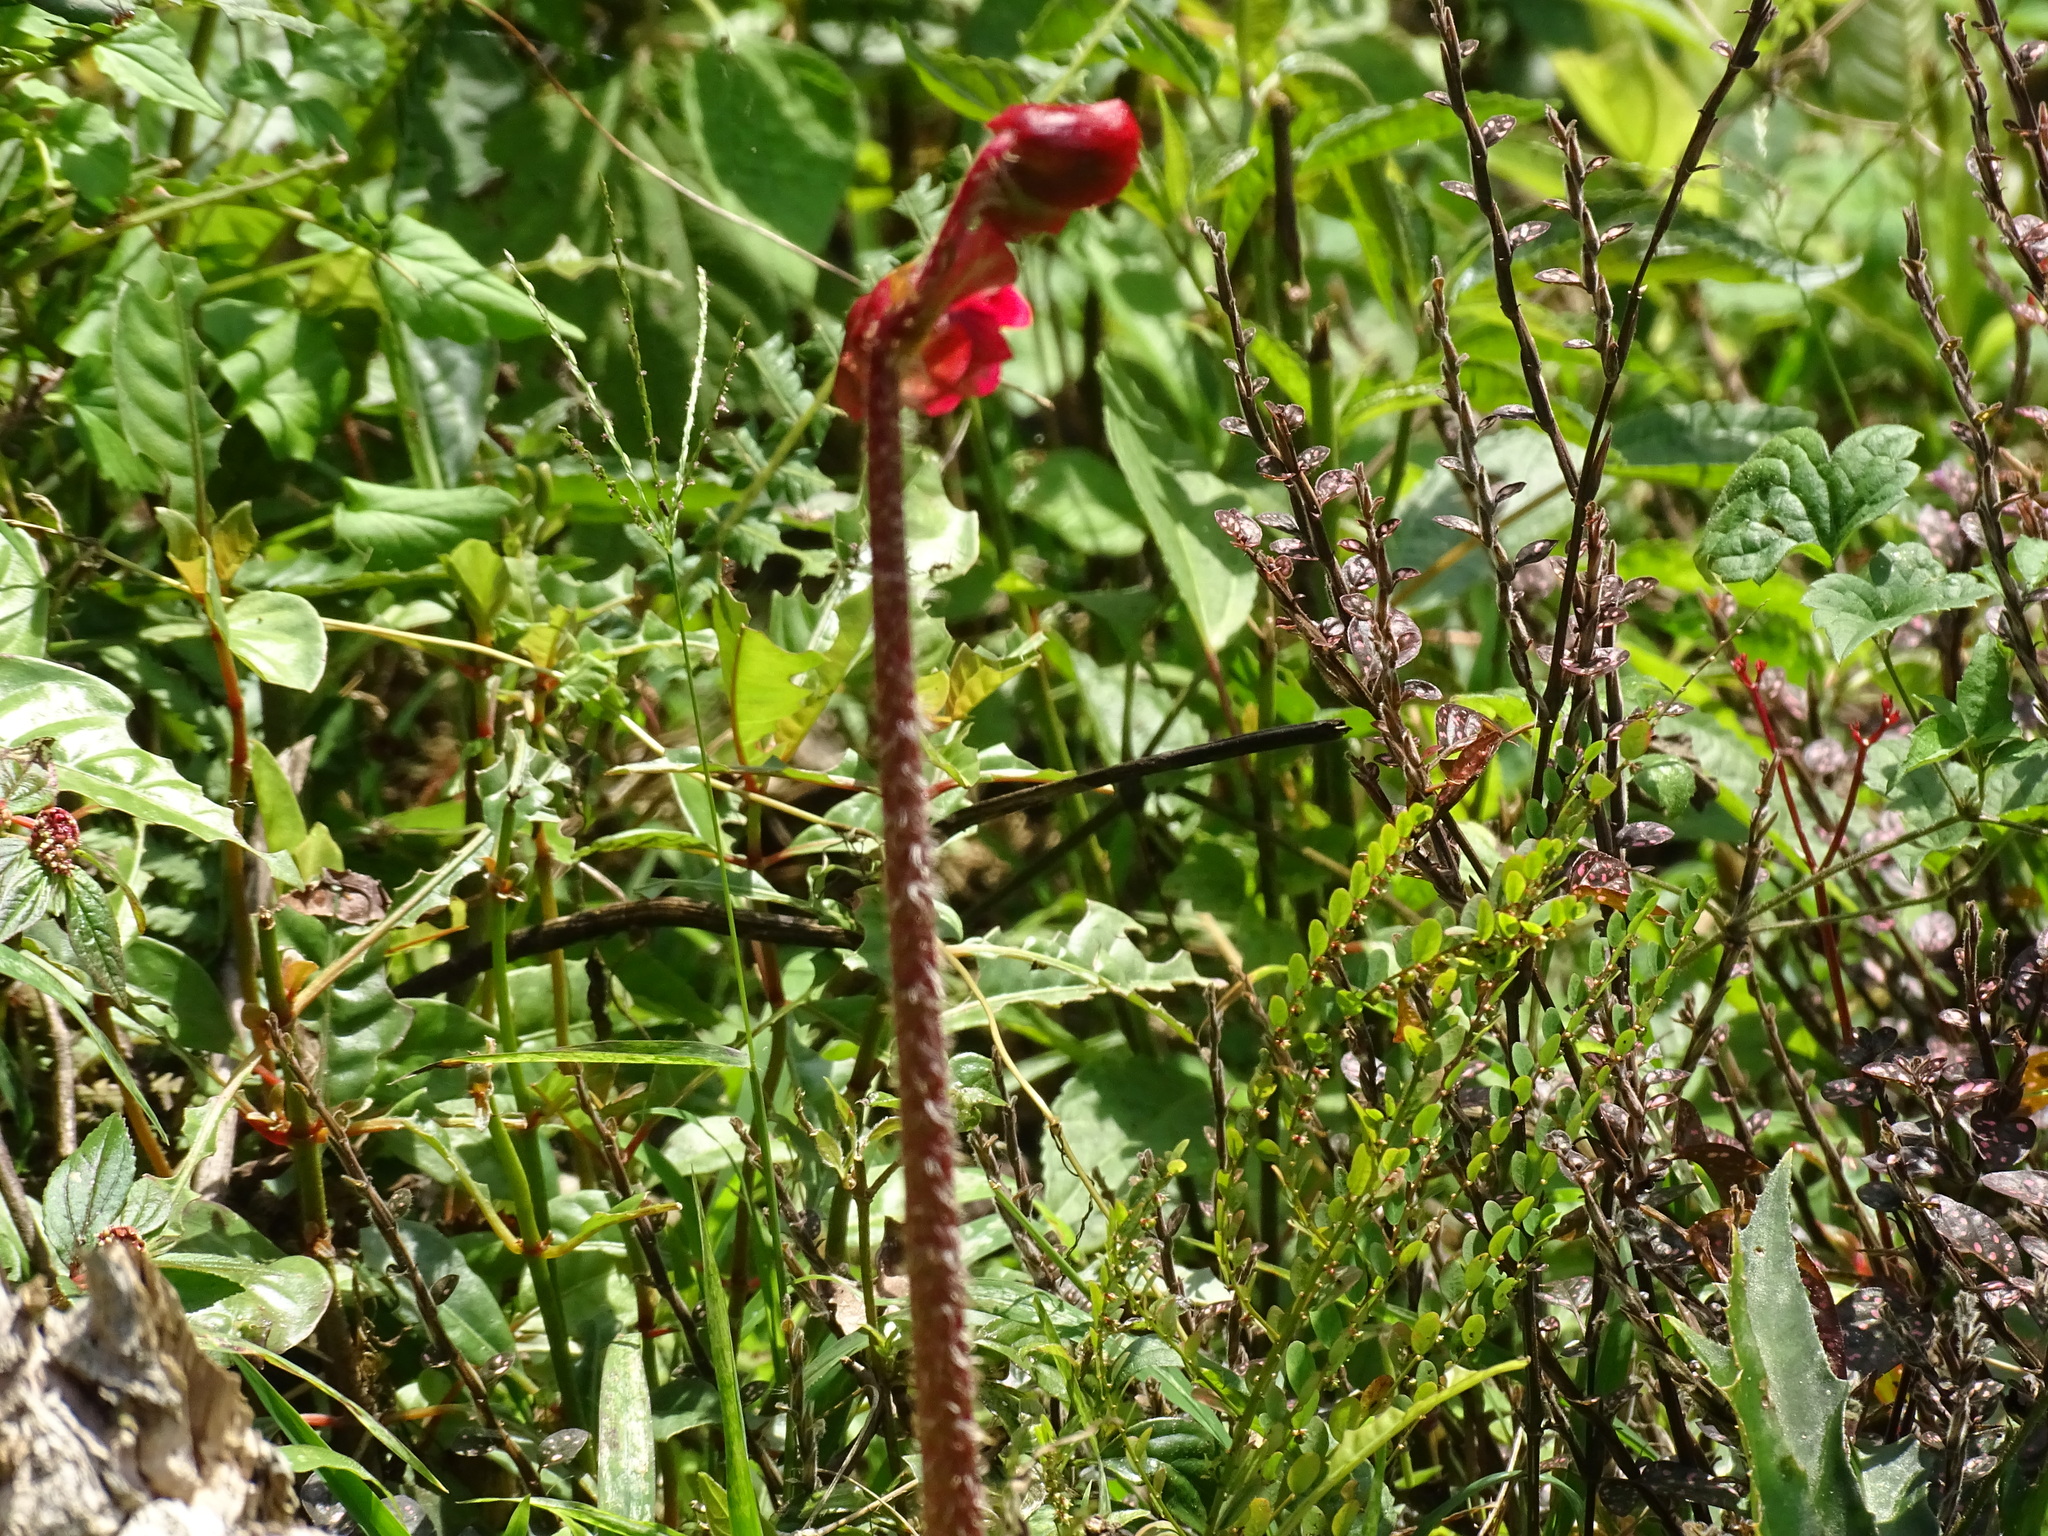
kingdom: Plantae
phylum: Tracheophyta
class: Magnoliopsida
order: Cucurbitales
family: Begoniaceae
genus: Begonia
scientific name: Begonia heracleifolia
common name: Star begonia
